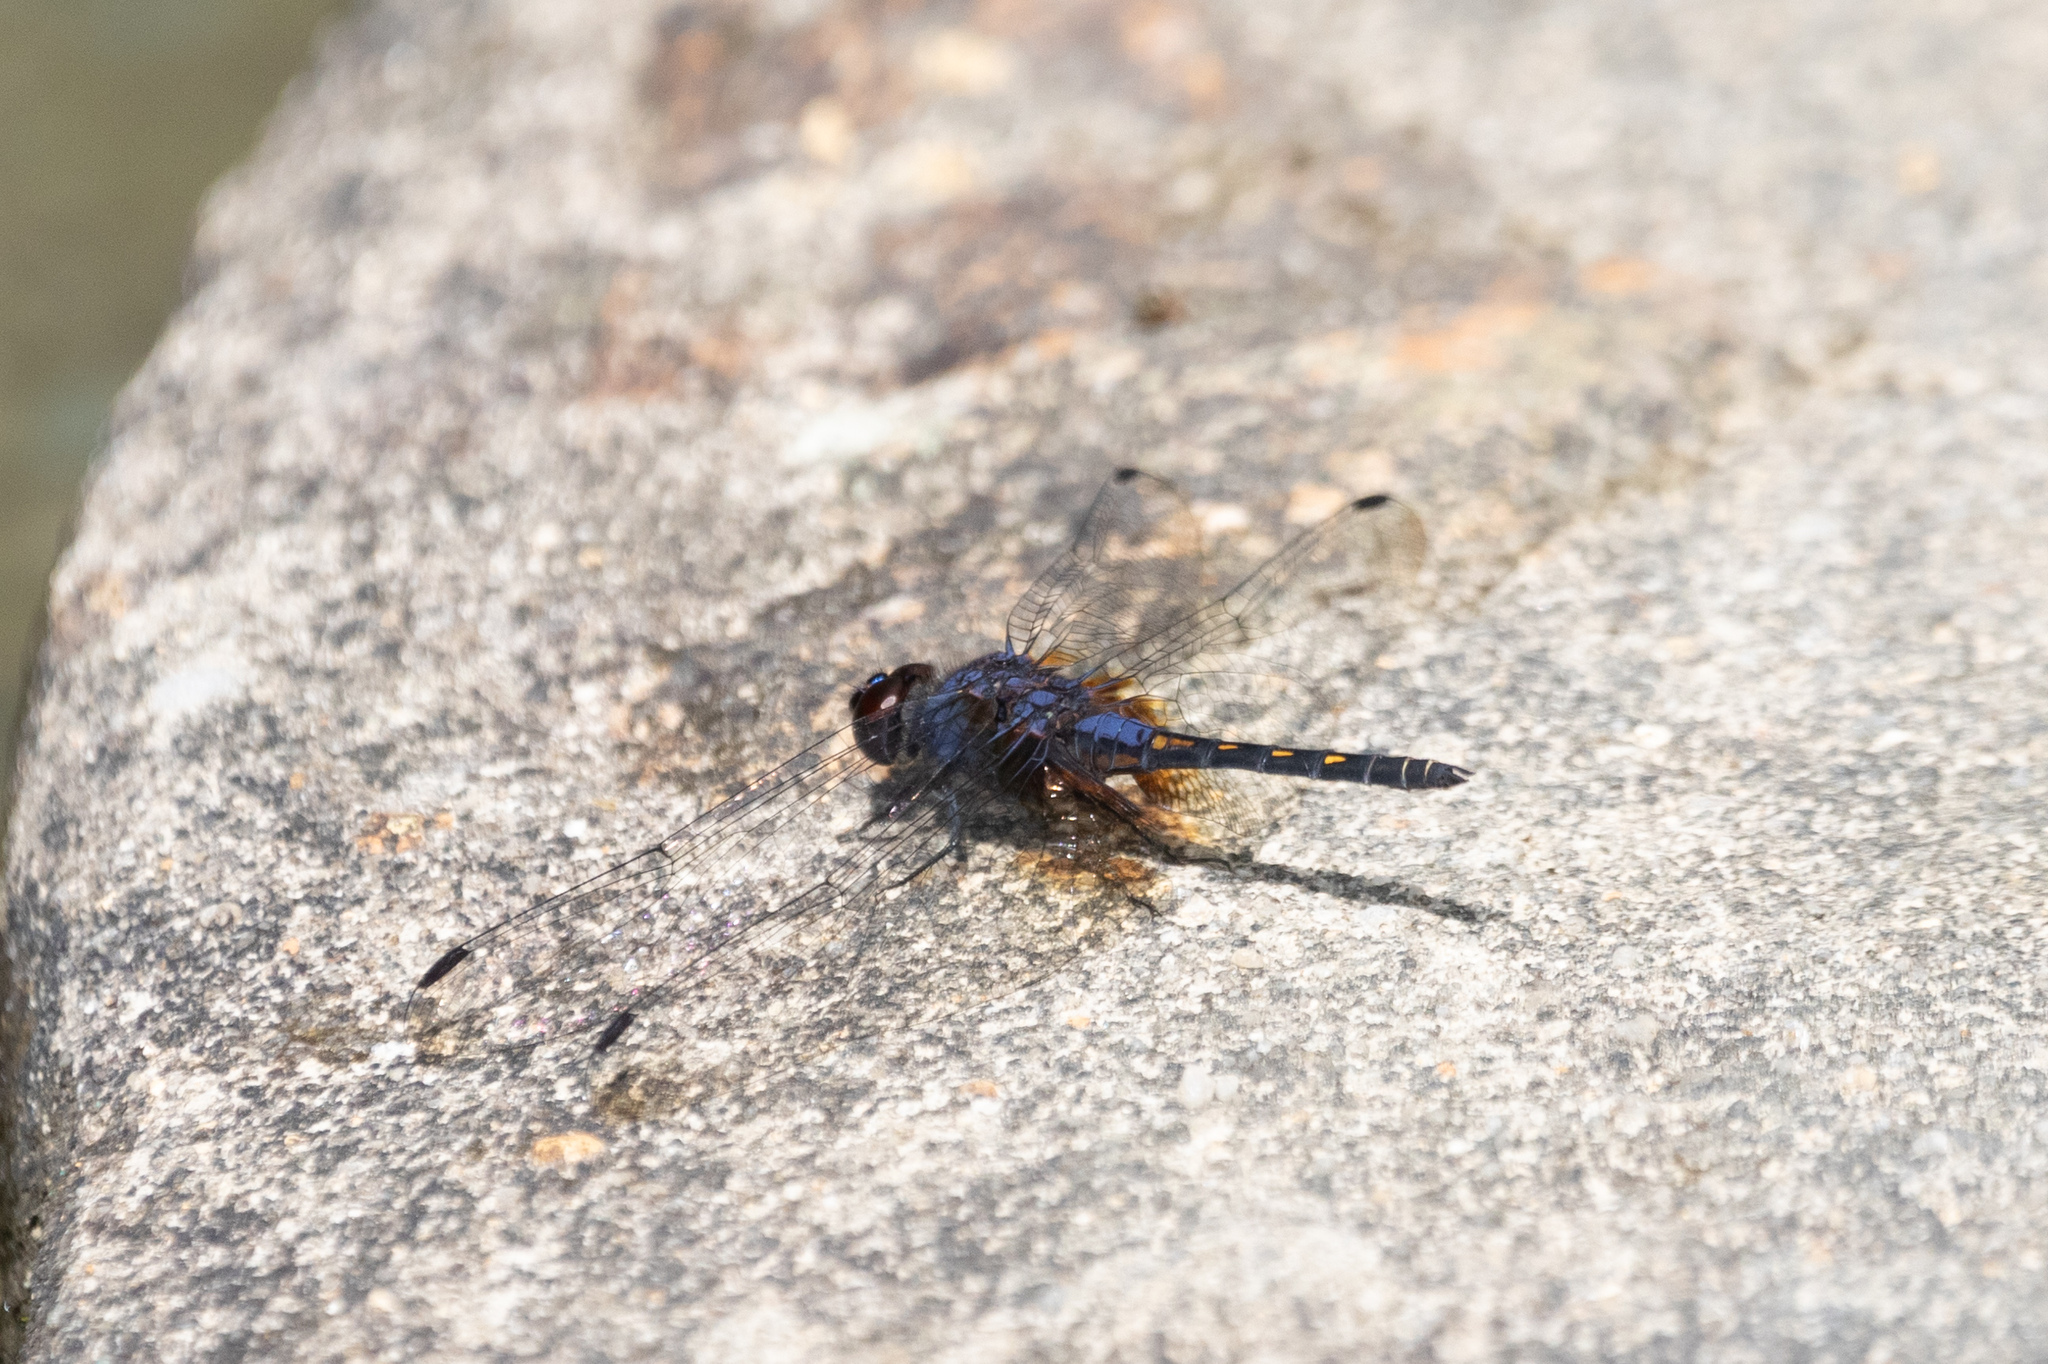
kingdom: Animalia
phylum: Arthropoda
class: Insecta
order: Odonata
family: Libellulidae
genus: Trithemis
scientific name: Trithemis festiva
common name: Indigo dropwing
